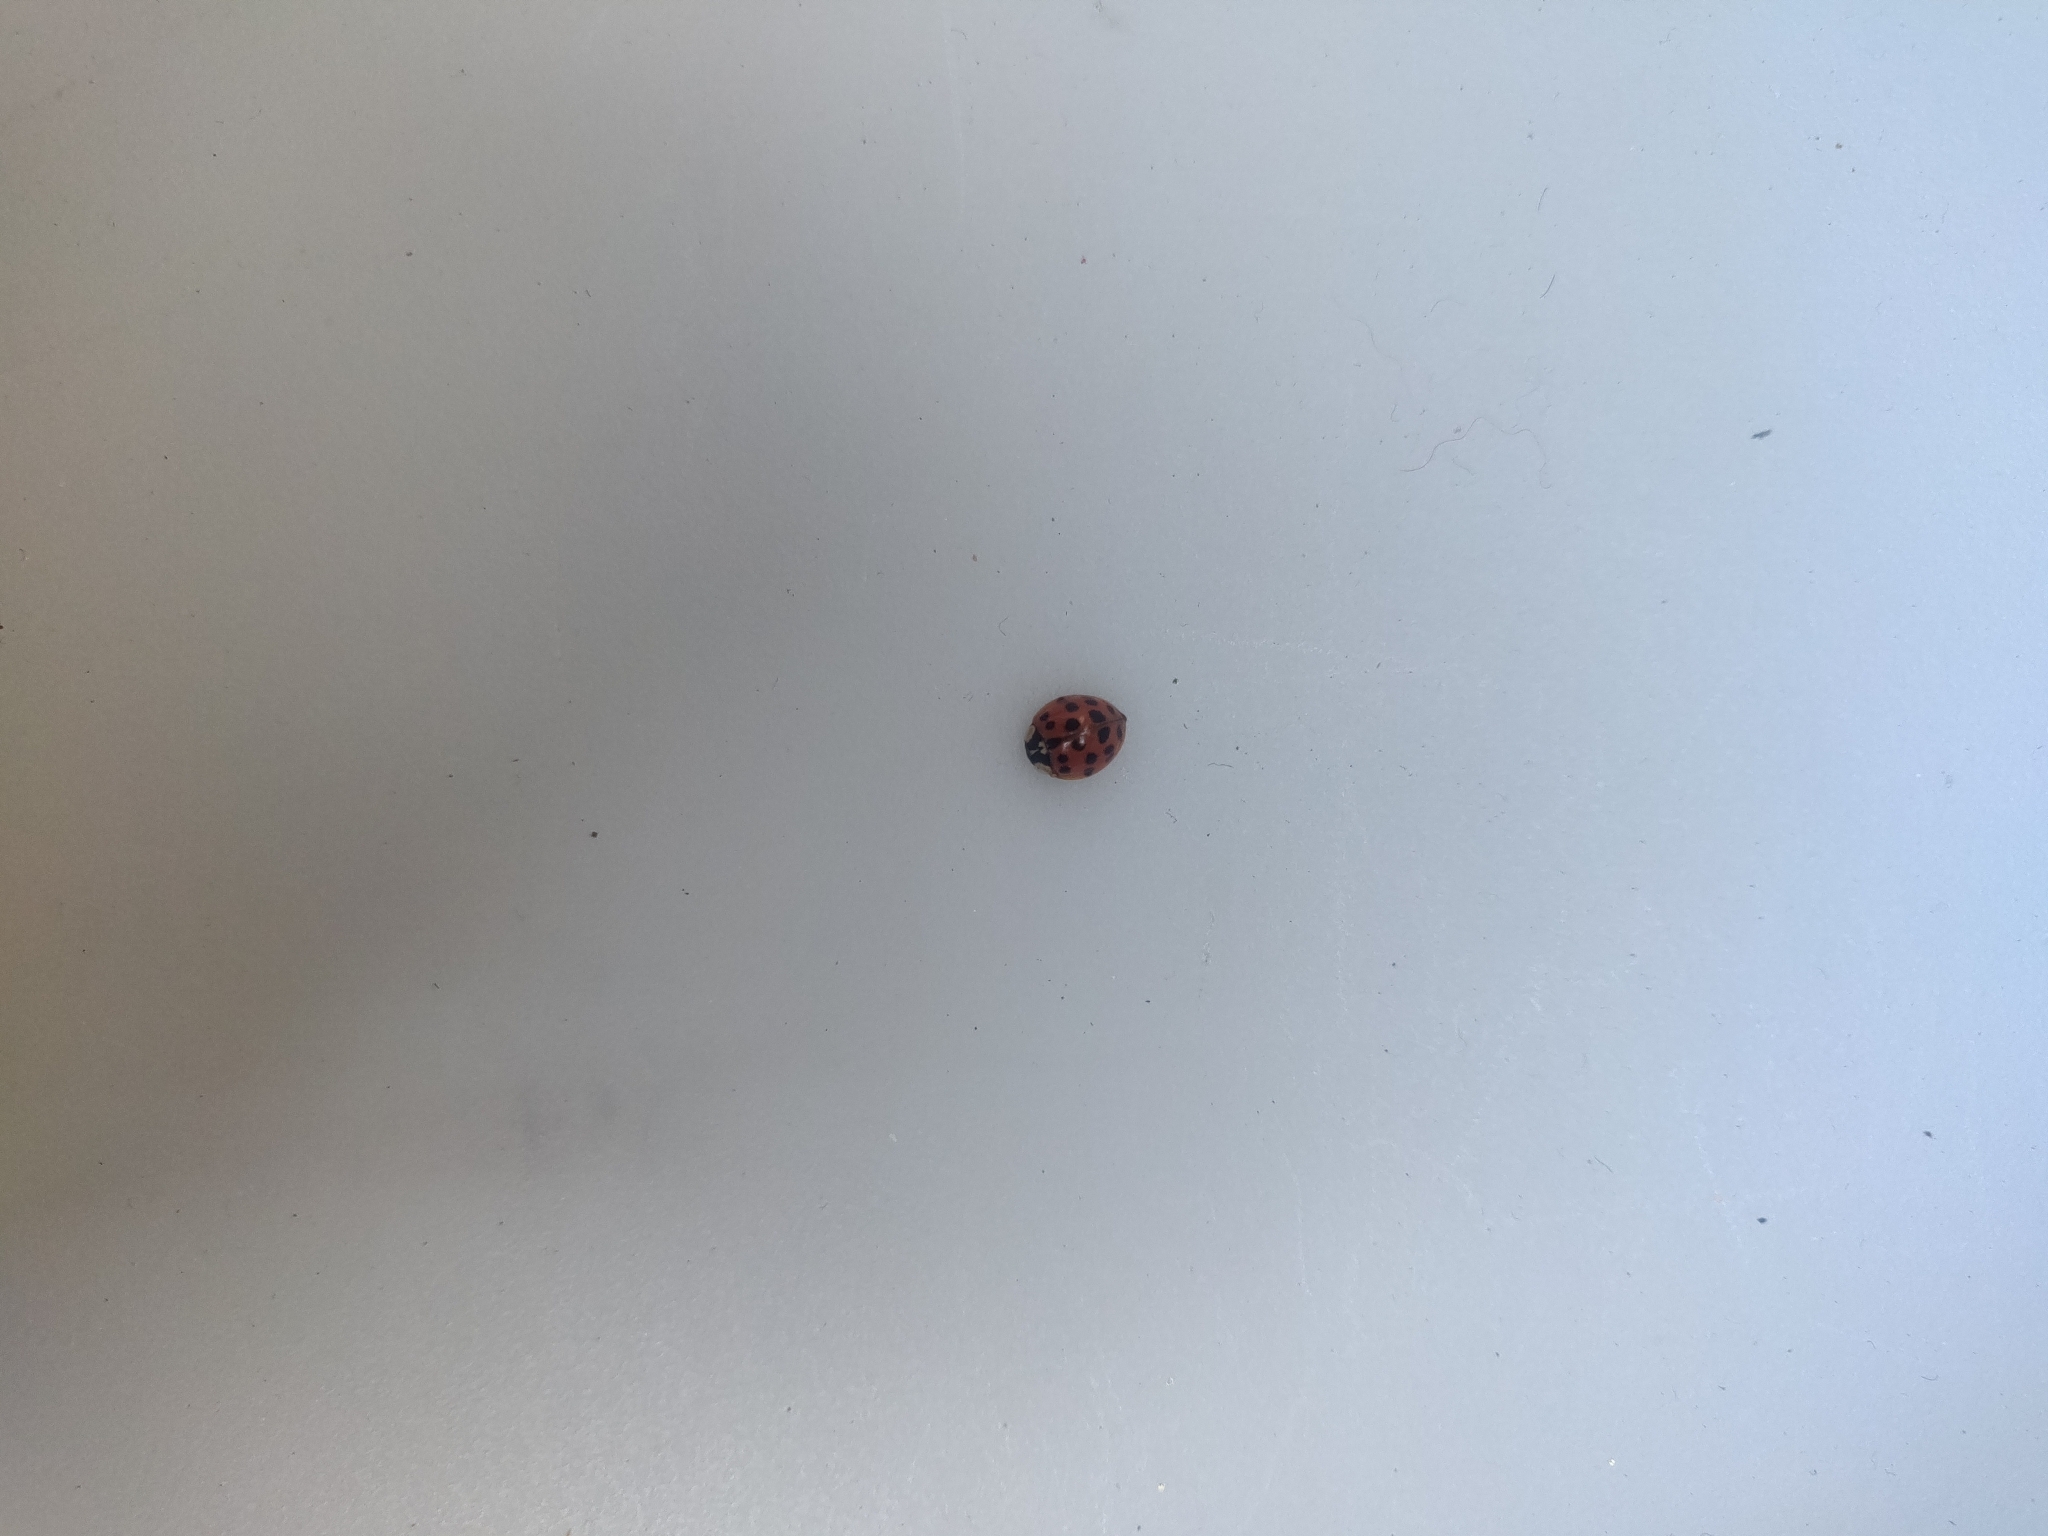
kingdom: Animalia
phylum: Arthropoda
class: Insecta
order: Coleoptera
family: Coccinellidae
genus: Harmonia
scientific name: Harmonia axyridis
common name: Harlequin ladybird
